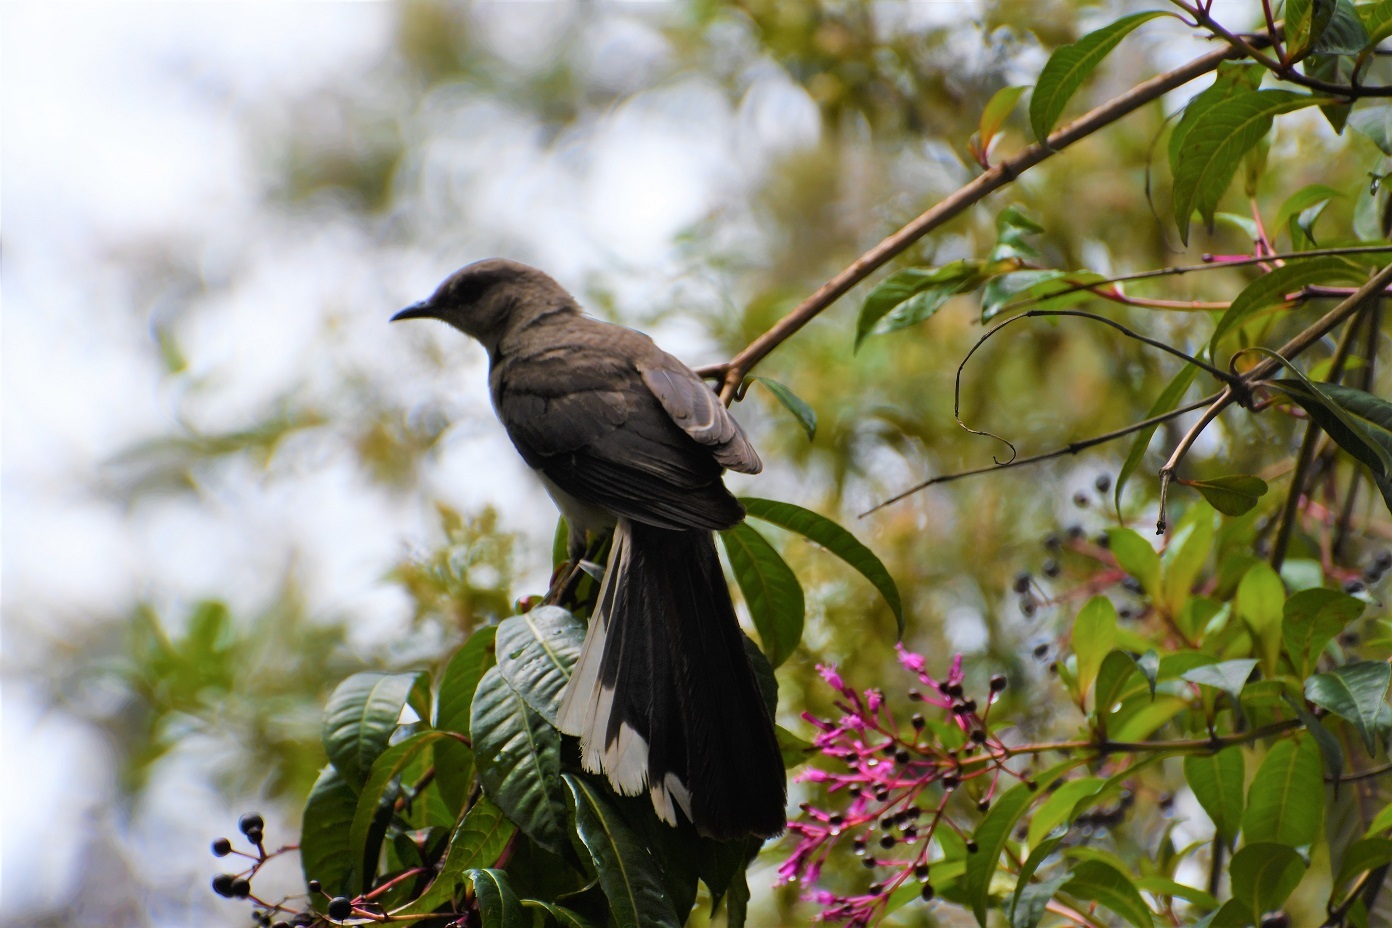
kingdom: Animalia
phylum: Chordata
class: Aves
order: Passeriformes
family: Mimidae
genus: Mimus
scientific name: Mimus gilvus
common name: Tropical mockingbird
